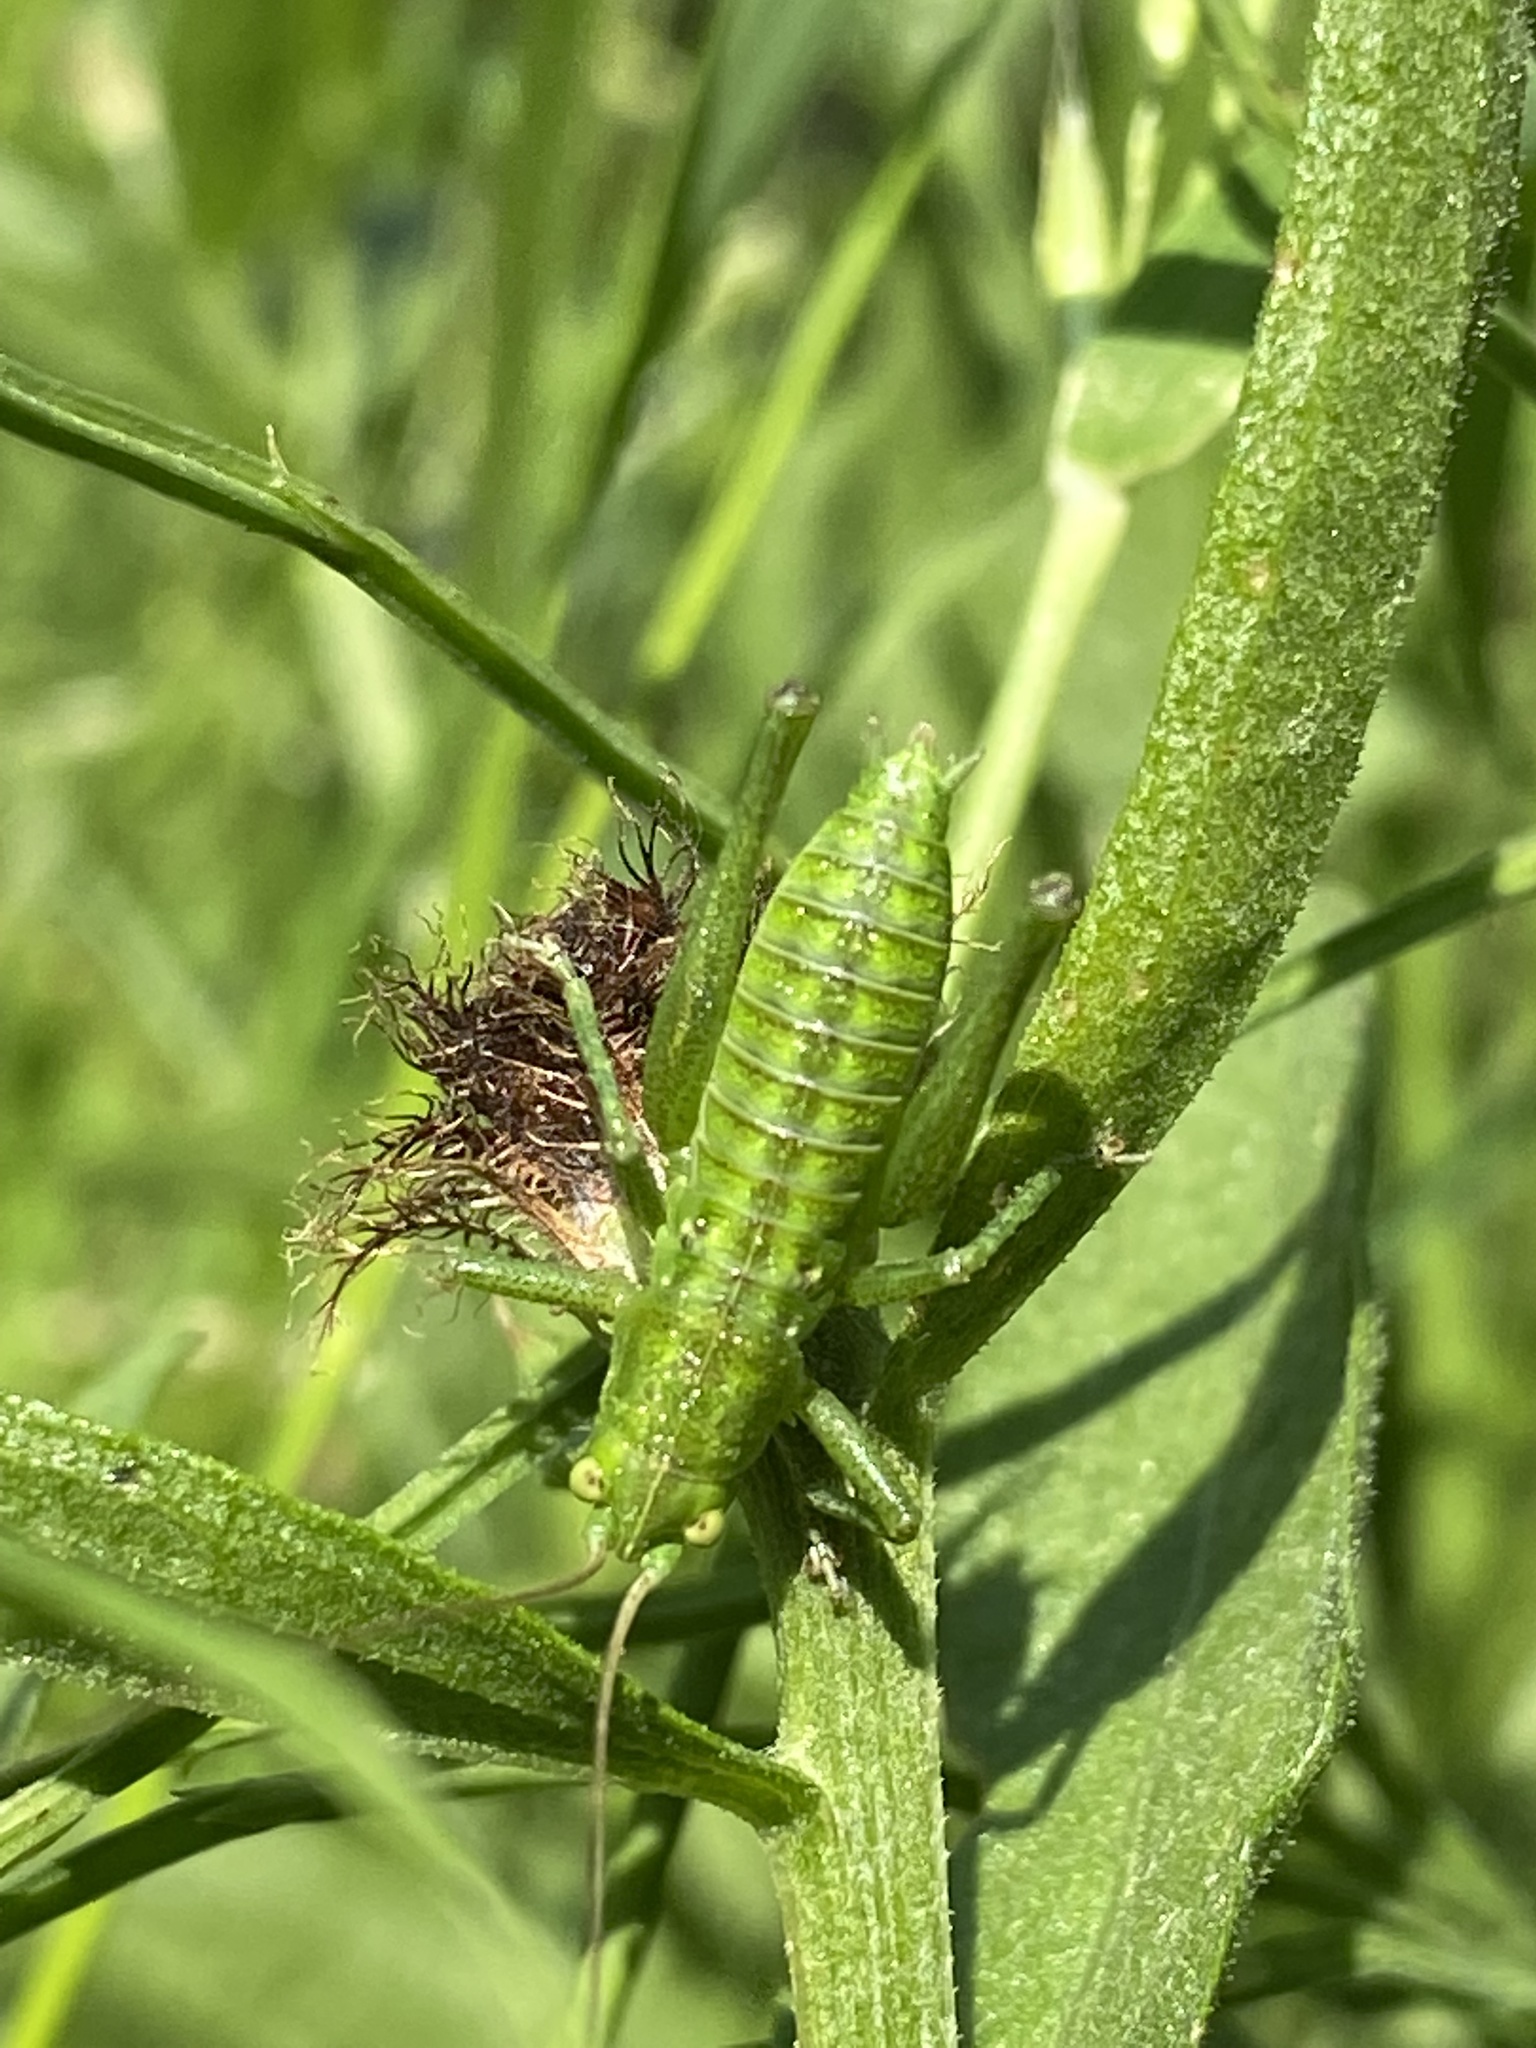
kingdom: Animalia
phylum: Arthropoda
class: Insecta
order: Orthoptera
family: Tettigoniidae
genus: Tettigonia
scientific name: Tettigonia viridissima
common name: Great green bush-cricket
